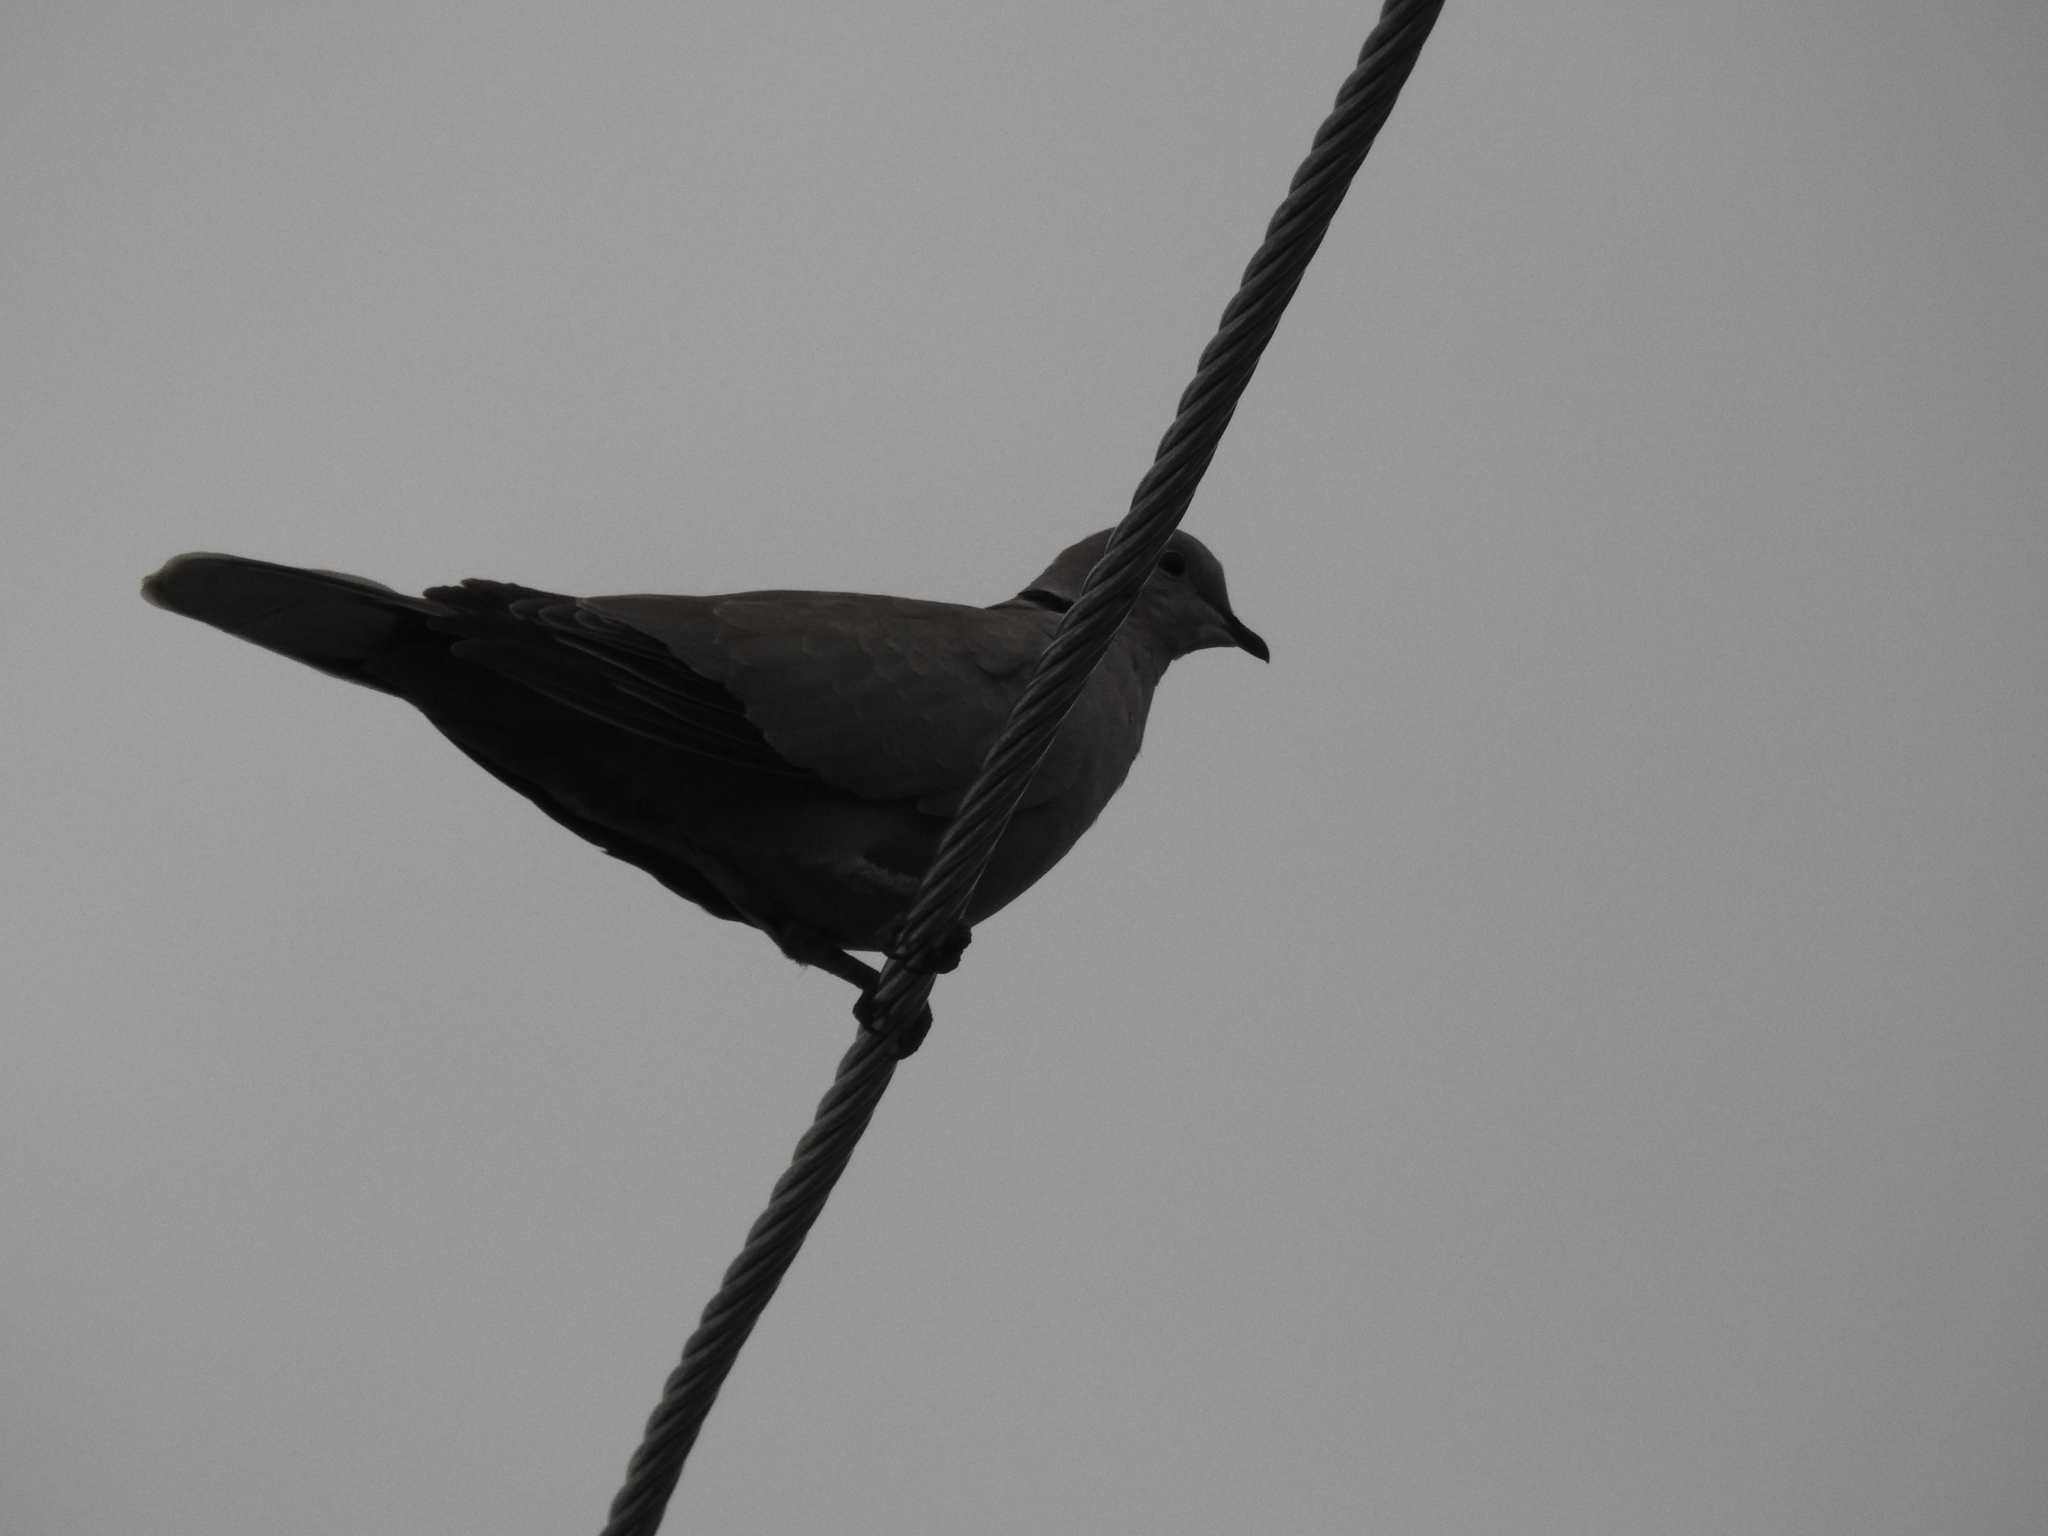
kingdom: Animalia
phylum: Chordata
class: Aves
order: Columbiformes
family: Columbidae
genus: Streptopelia
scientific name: Streptopelia decaocto
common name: Eurasian collared dove
